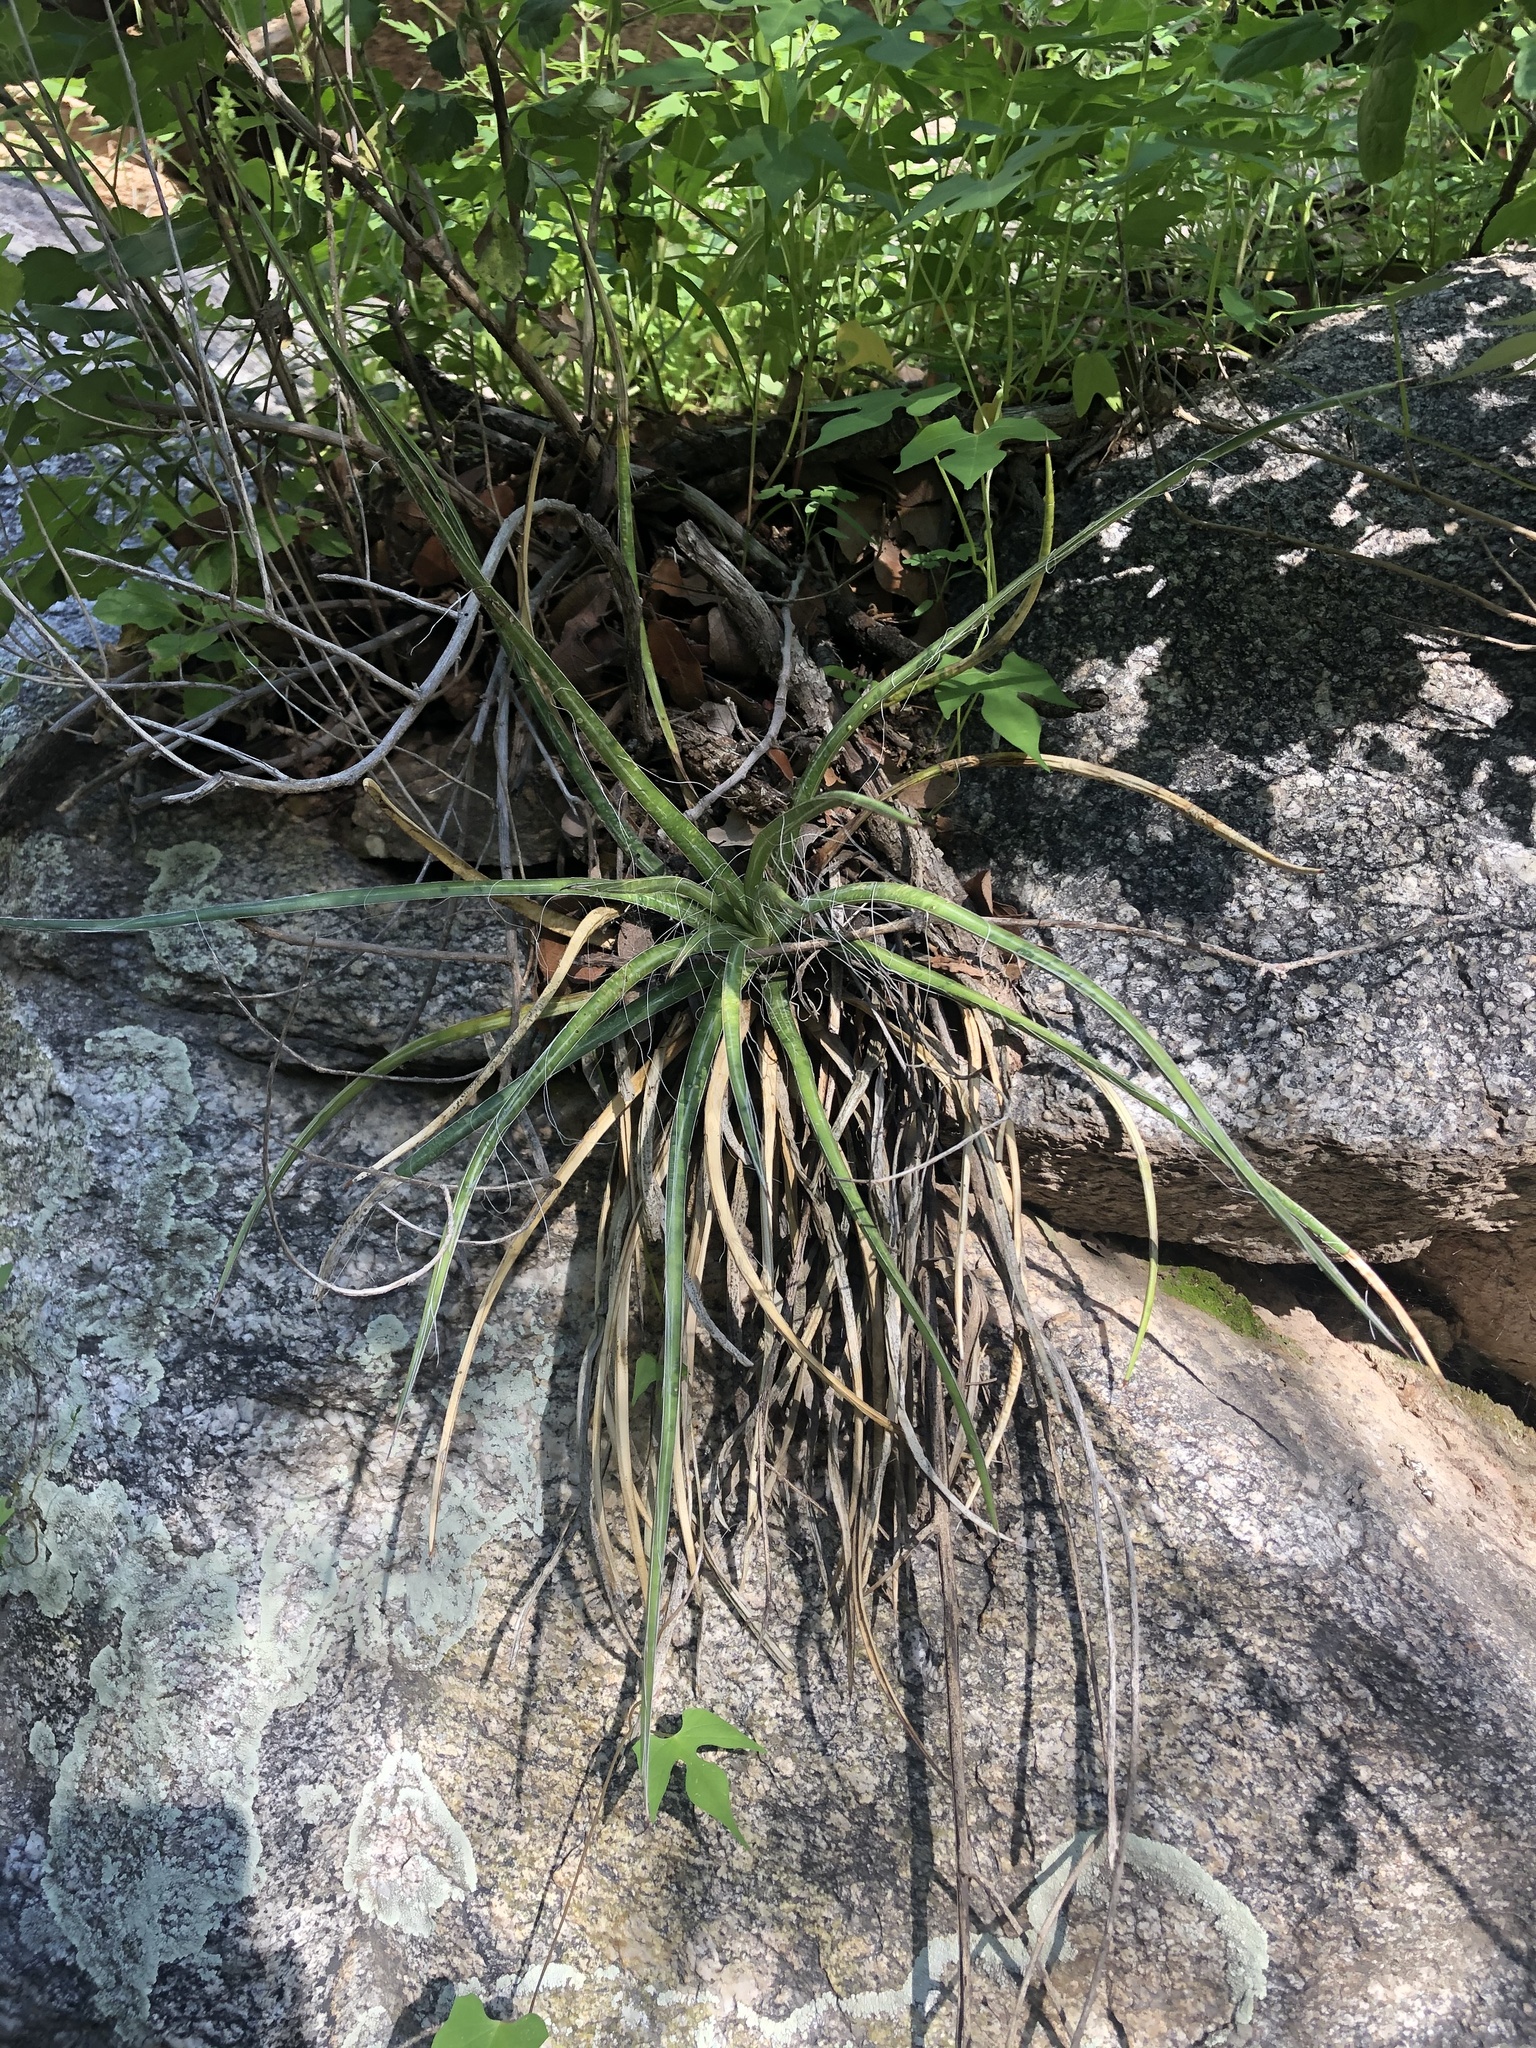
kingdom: Plantae
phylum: Tracheophyta
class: Liliopsida
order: Asparagales
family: Asparagaceae
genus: Agave
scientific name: Agave schottii
